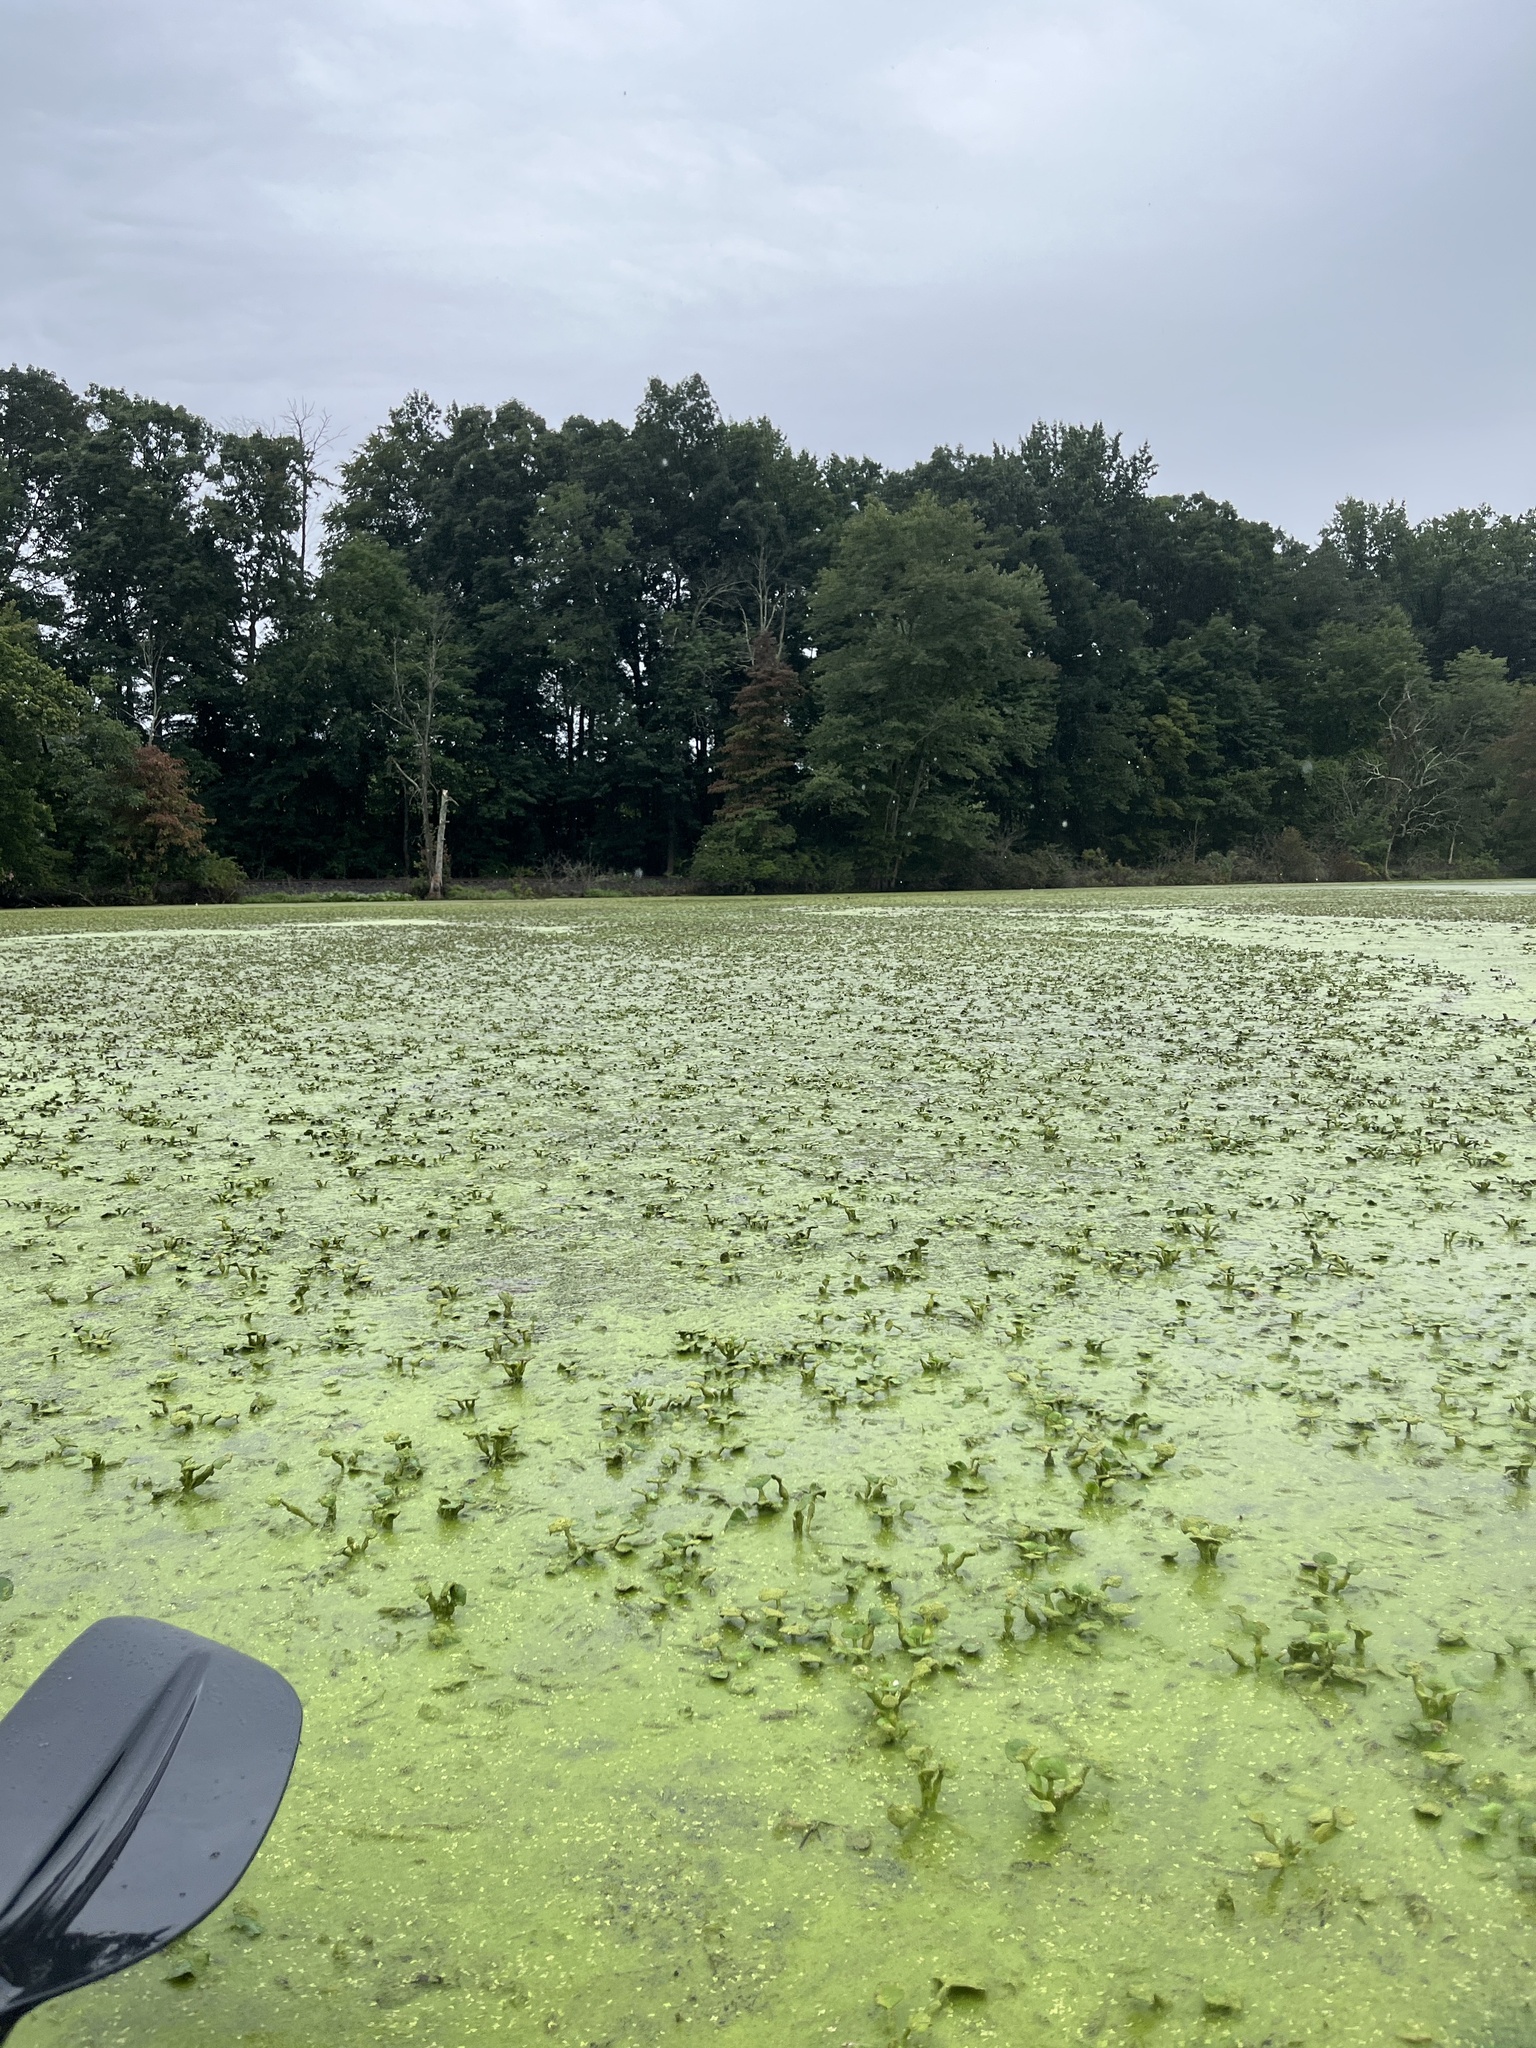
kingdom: Plantae
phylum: Tracheophyta
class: Magnoliopsida
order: Myrtales
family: Lythraceae
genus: Trapa
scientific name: Trapa natans
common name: Water chestnut
